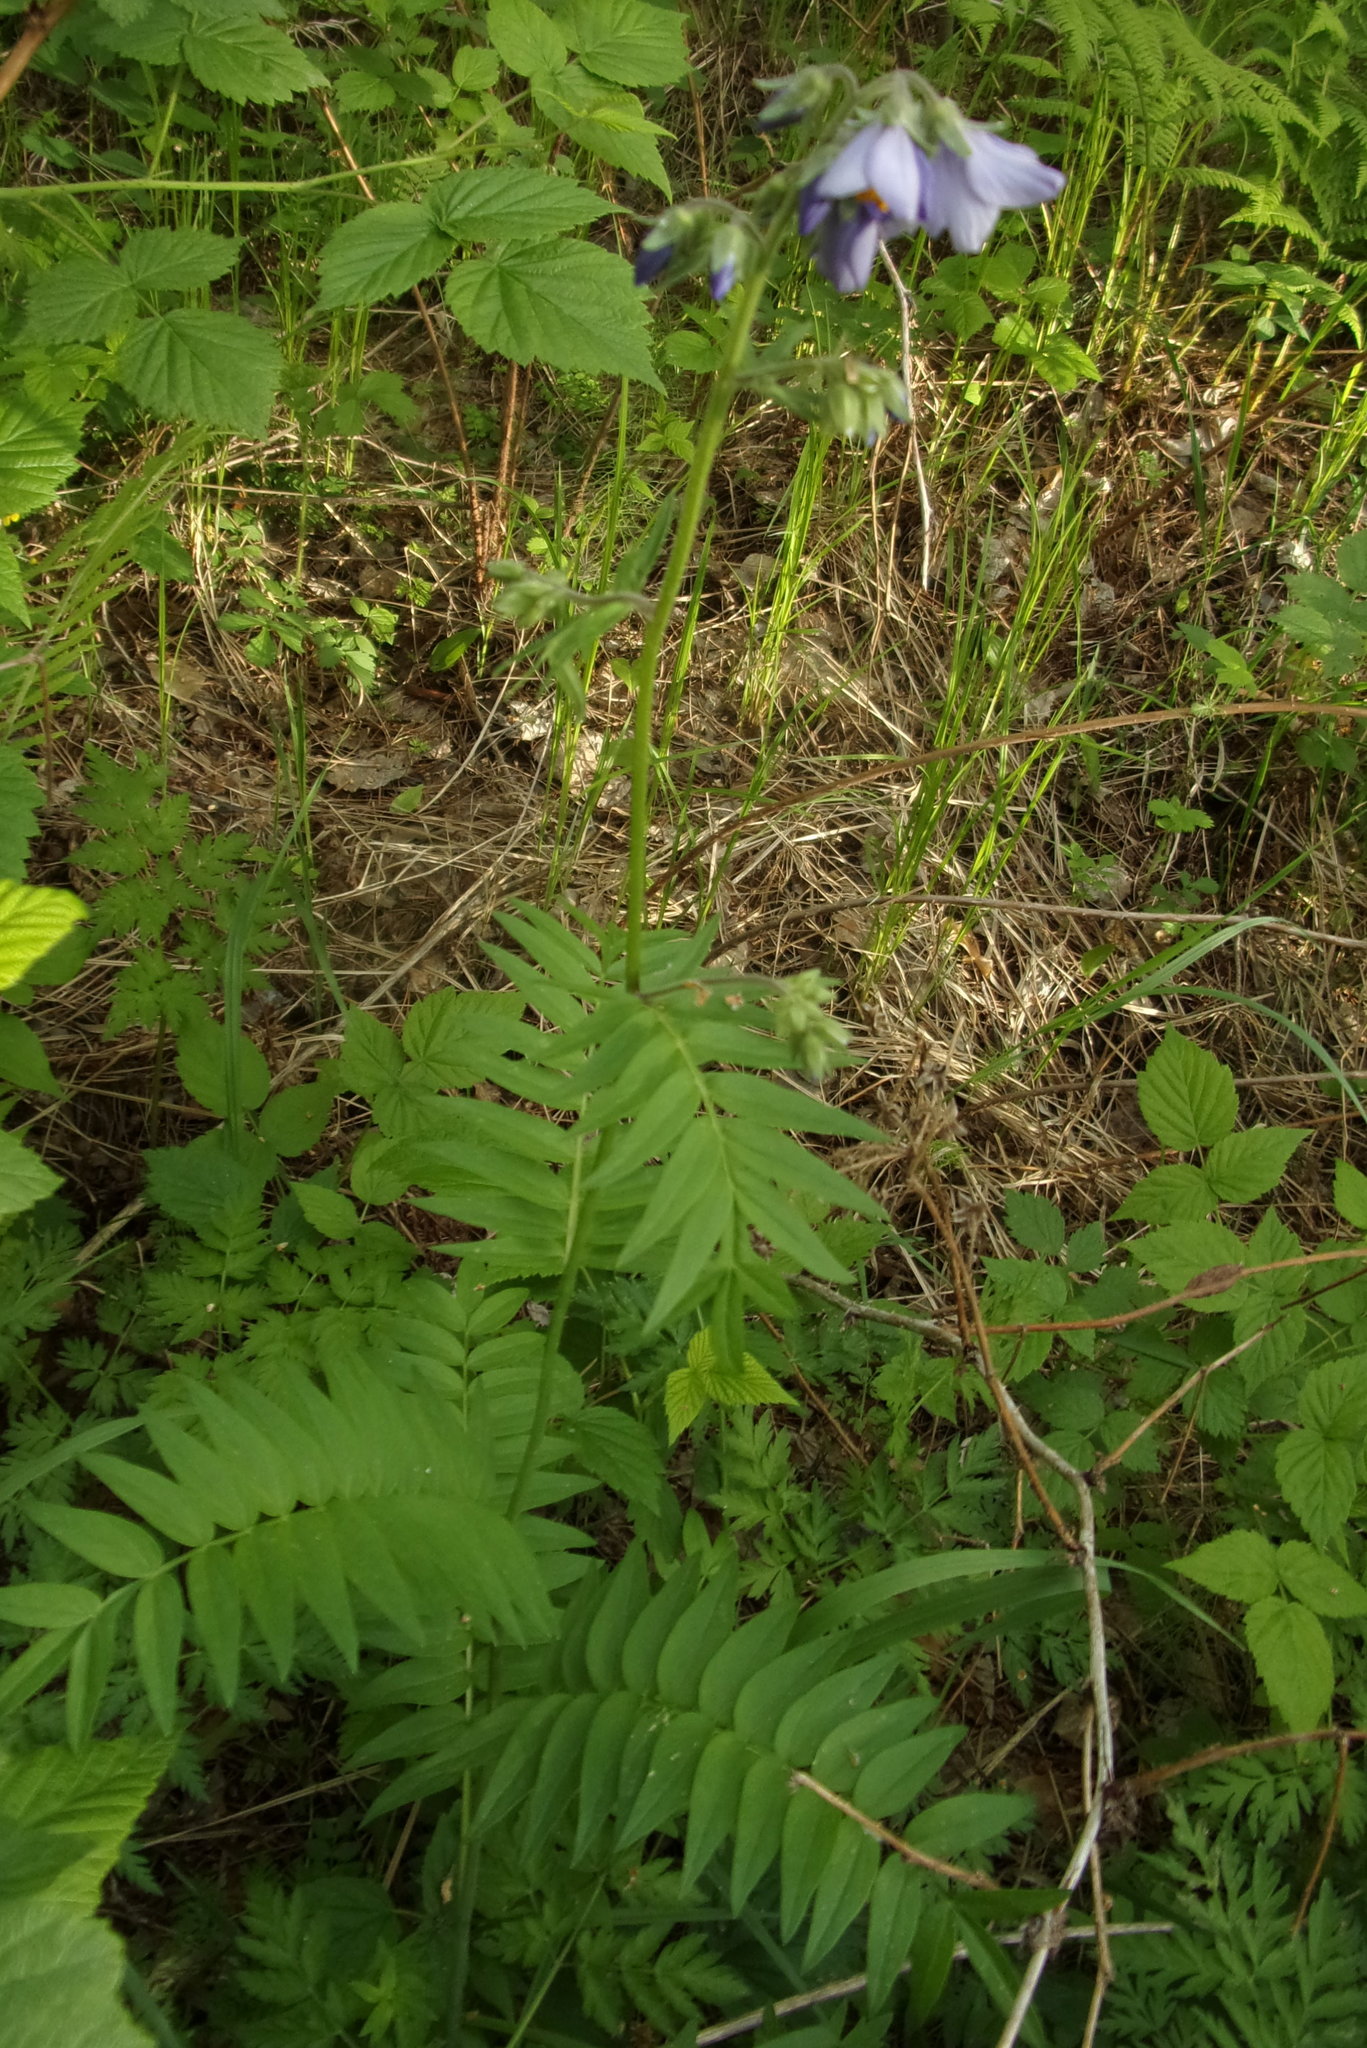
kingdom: Plantae
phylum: Tracheophyta
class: Magnoliopsida
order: Ericales
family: Polemoniaceae
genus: Polemonium
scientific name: Polemonium caeruleum
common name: Jacob's-ladder
